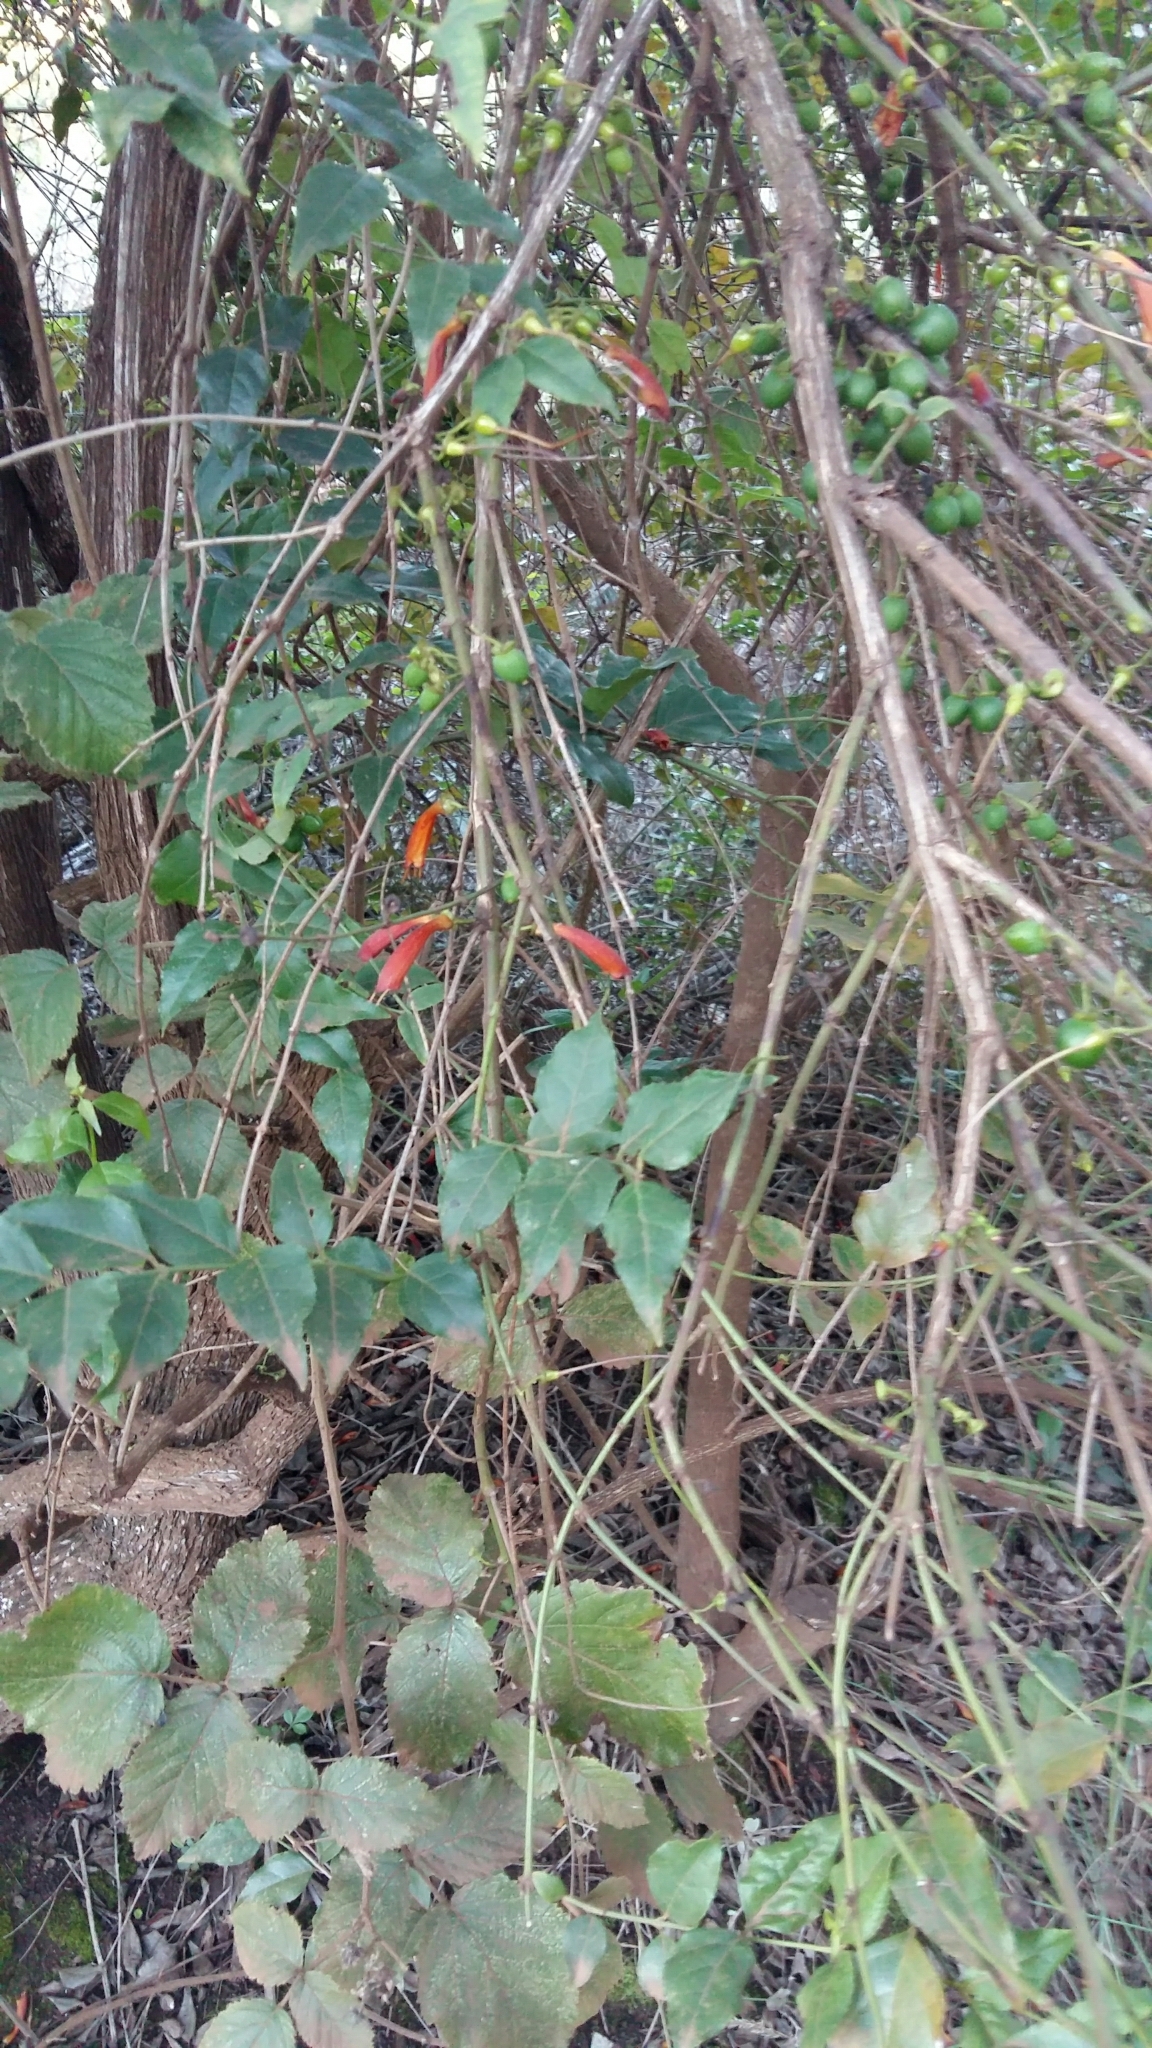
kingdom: Plantae
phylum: Tracheophyta
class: Magnoliopsida
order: Lamiales
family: Stilbaceae
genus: Halleria
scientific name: Halleria lucida
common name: Tree fuschia
